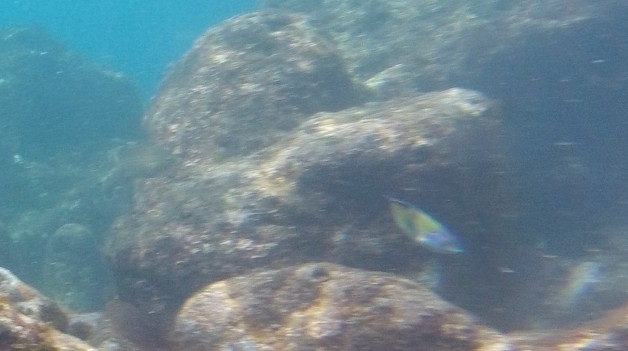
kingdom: Animalia
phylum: Chordata
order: Perciformes
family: Labridae
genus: Thalassoma
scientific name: Thalassoma pavo
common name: Ornate wrasse
